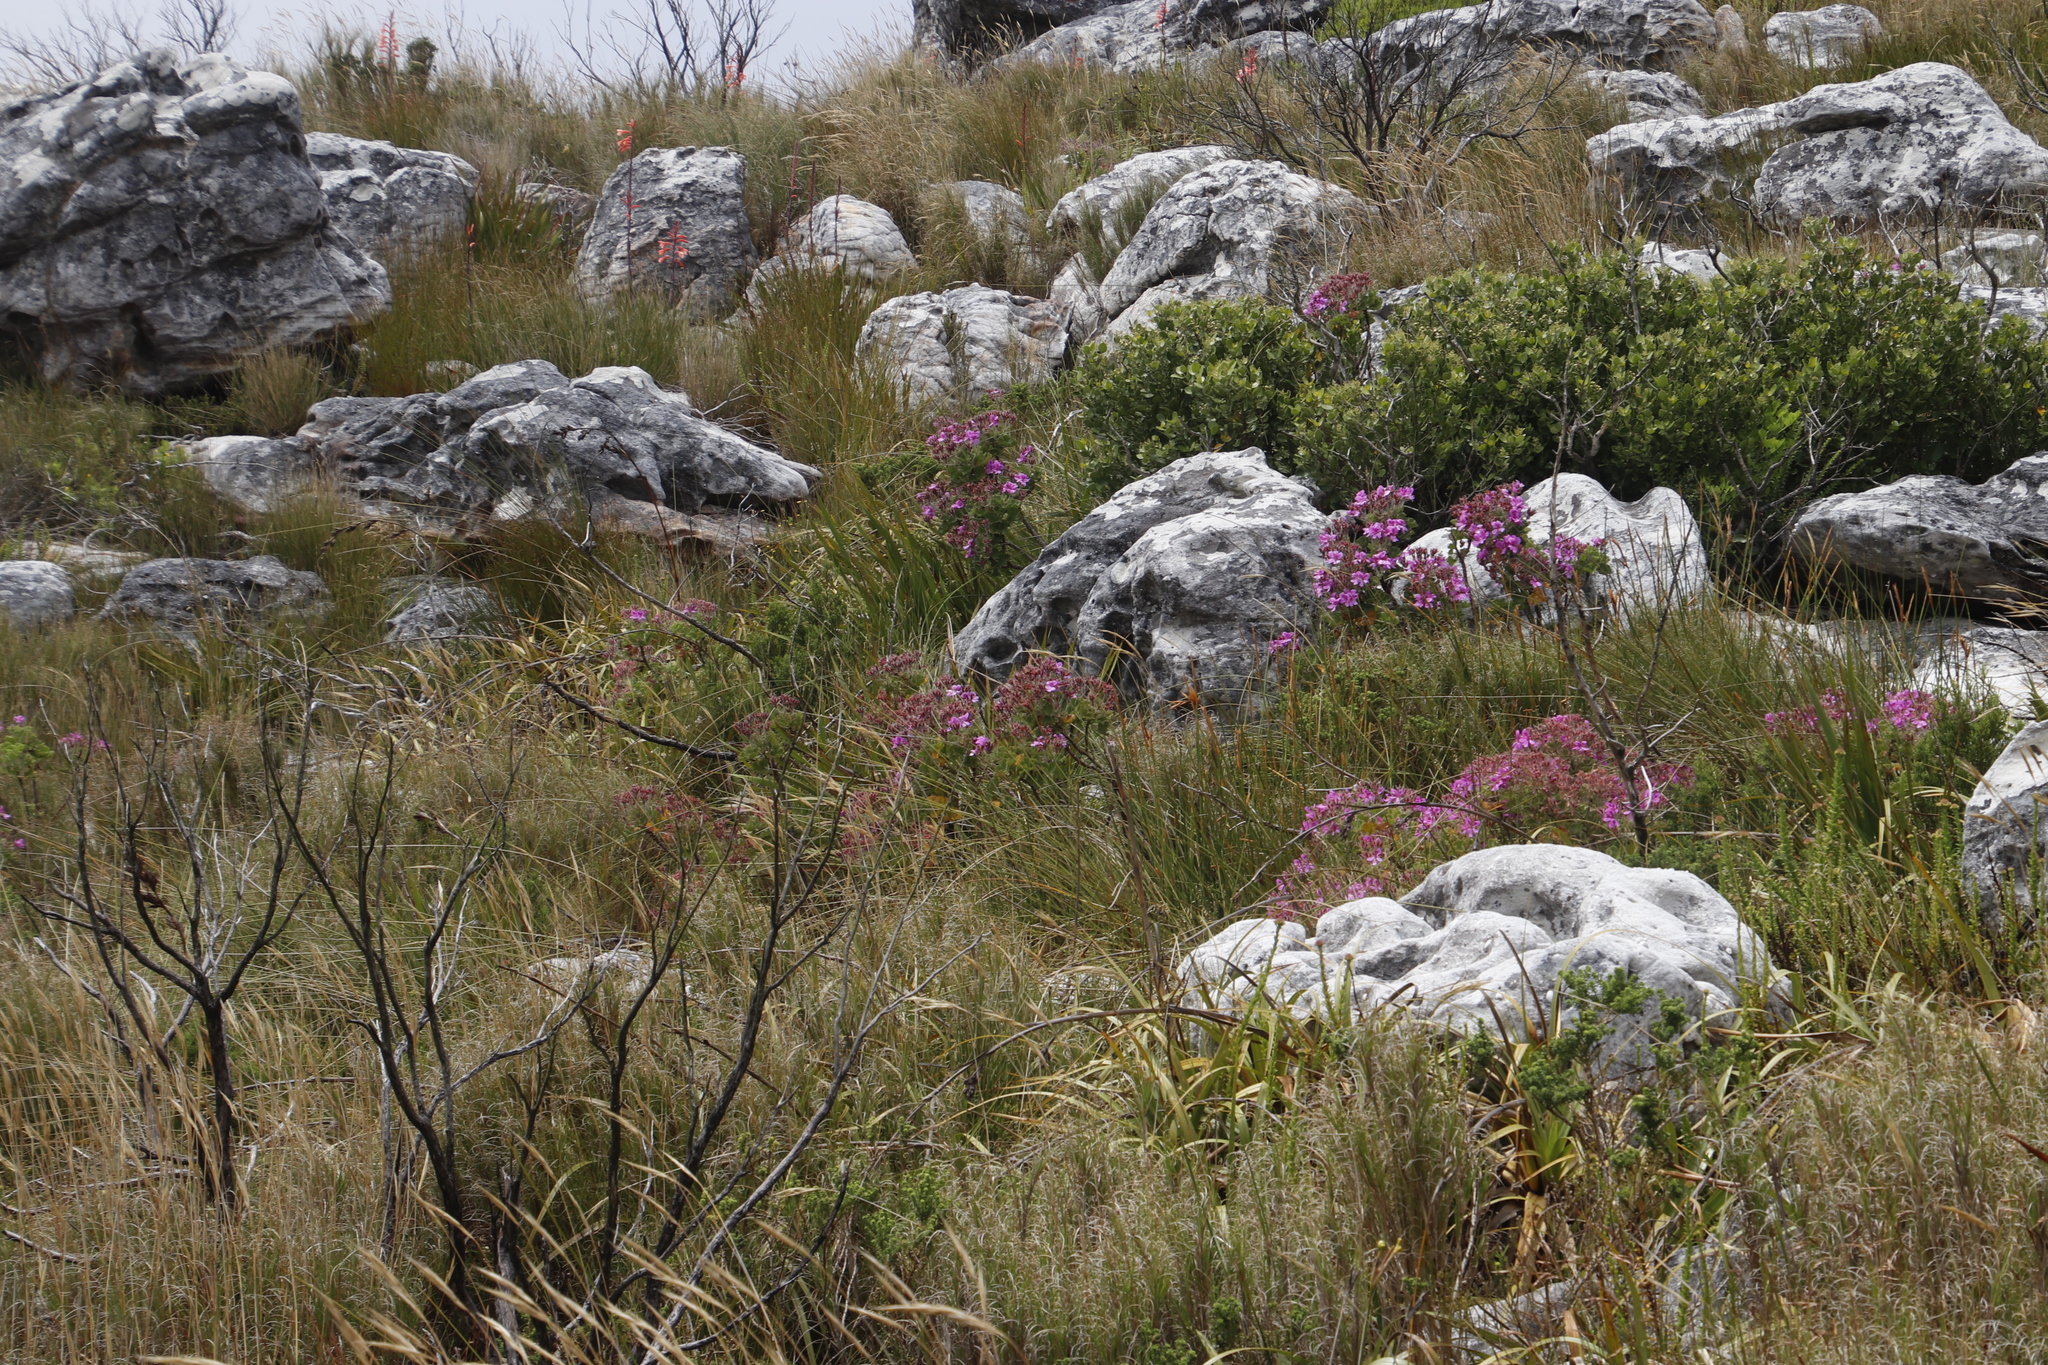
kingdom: Plantae
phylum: Tracheophyta
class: Magnoliopsida
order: Geraniales
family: Geraniaceae
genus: Pelargonium
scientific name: Pelargonium cucullatum
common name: Tree pelargonium
